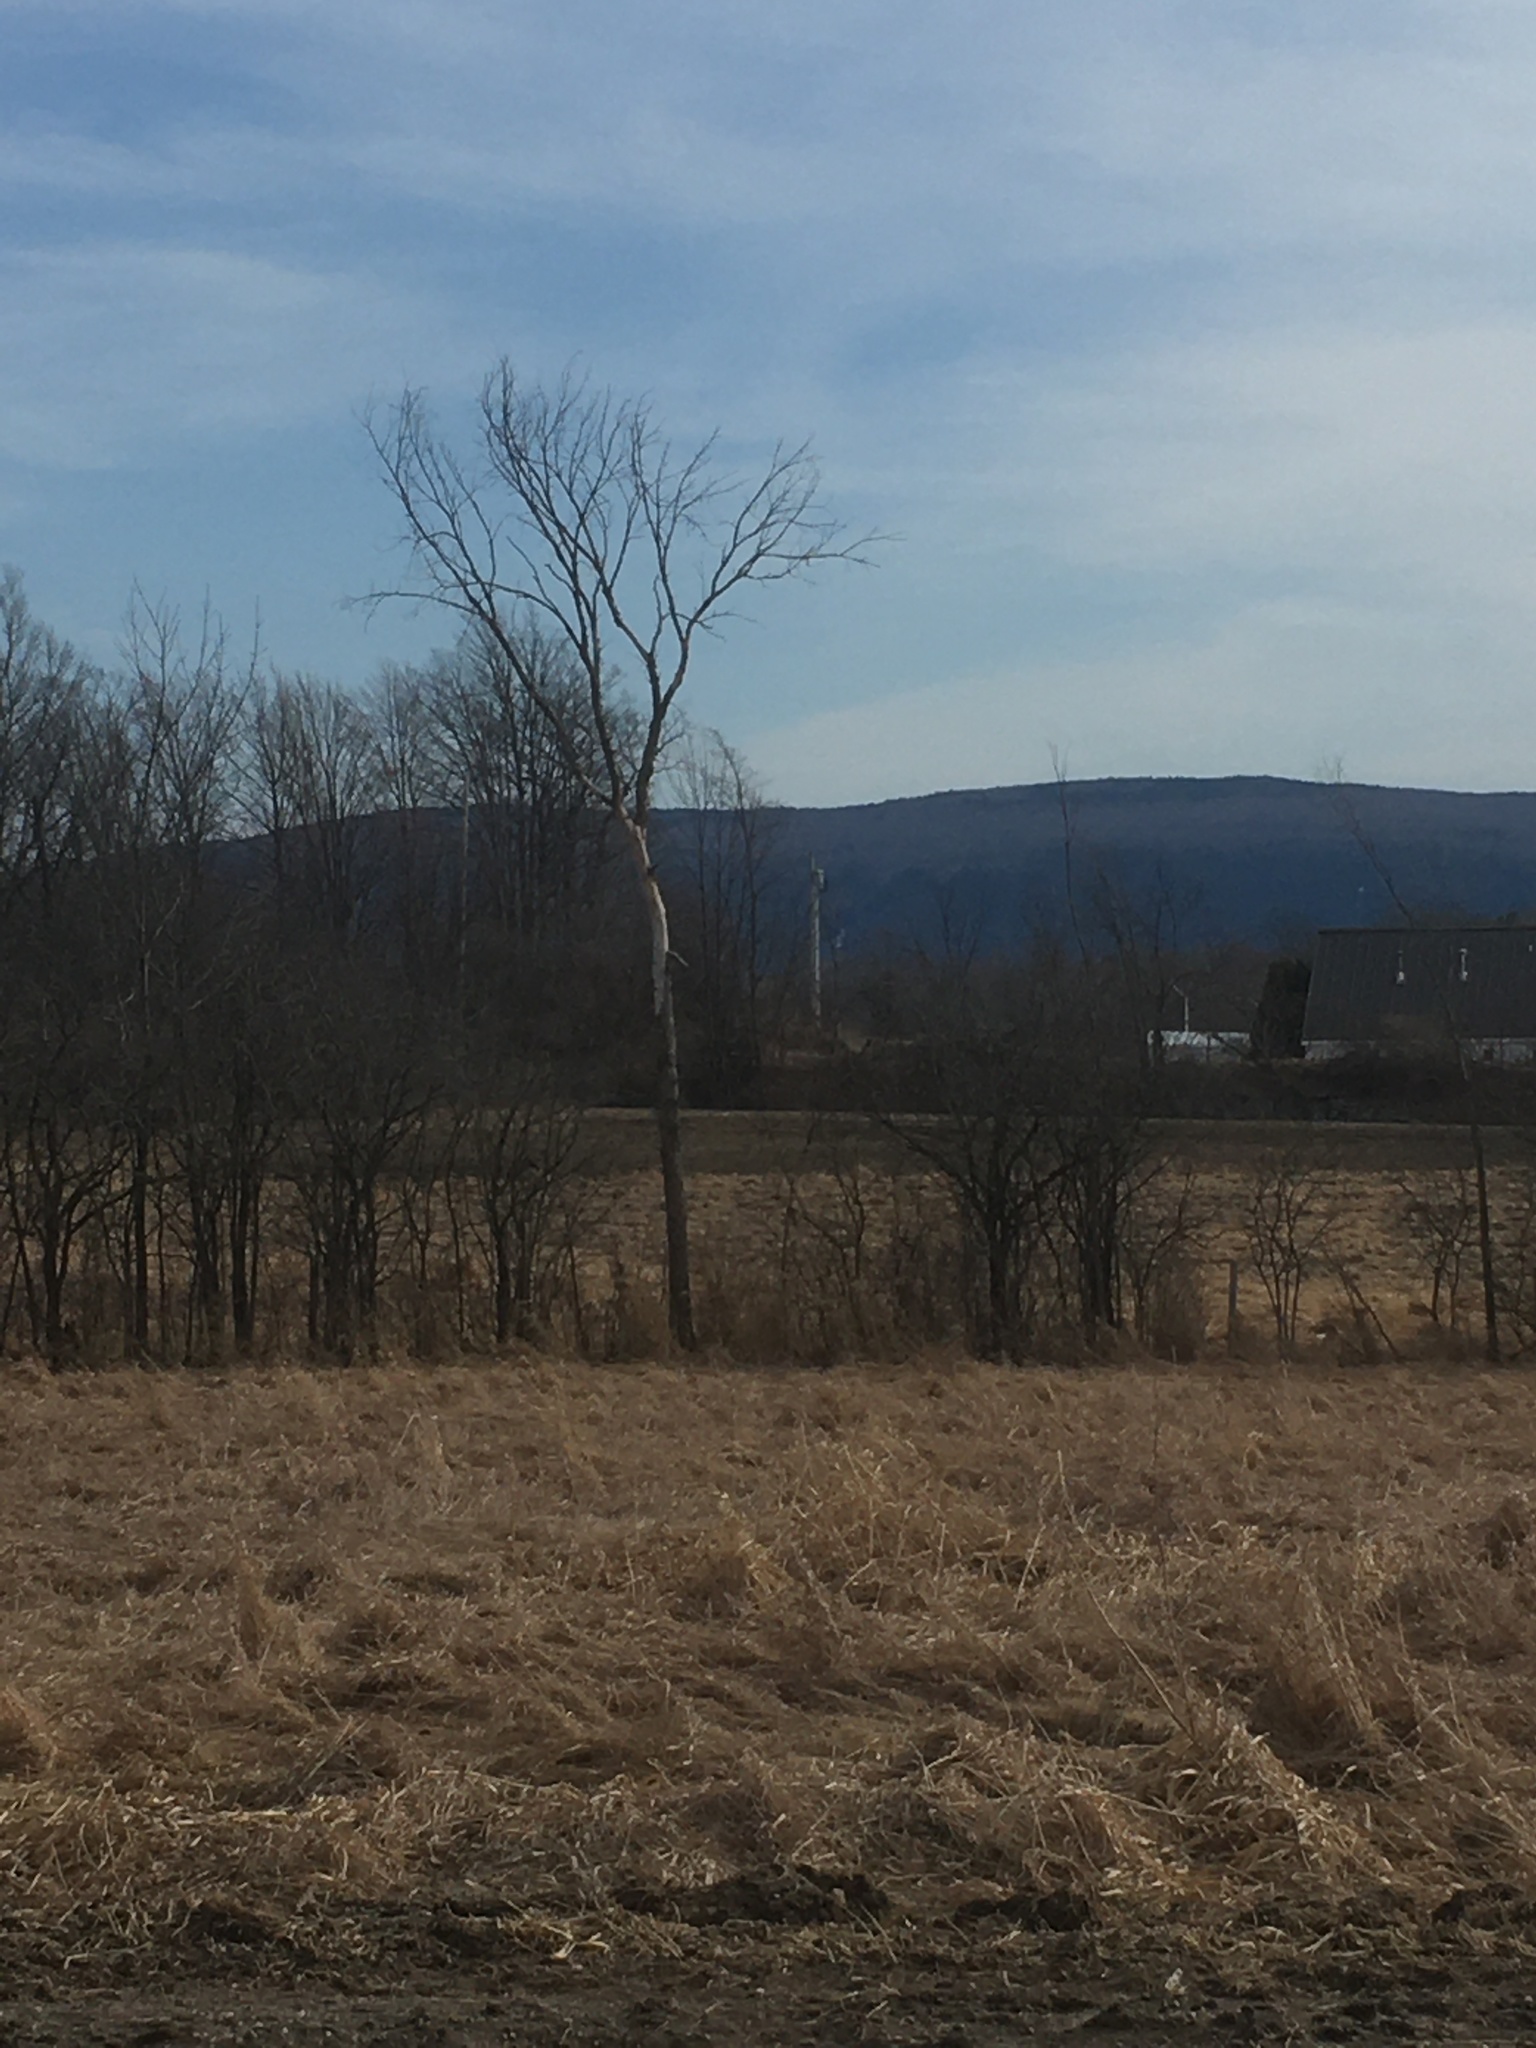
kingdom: Plantae
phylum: Tracheophyta
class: Magnoliopsida
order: Rosales
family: Ulmaceae
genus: Ulmus
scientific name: Ulmus americana
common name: American elm
